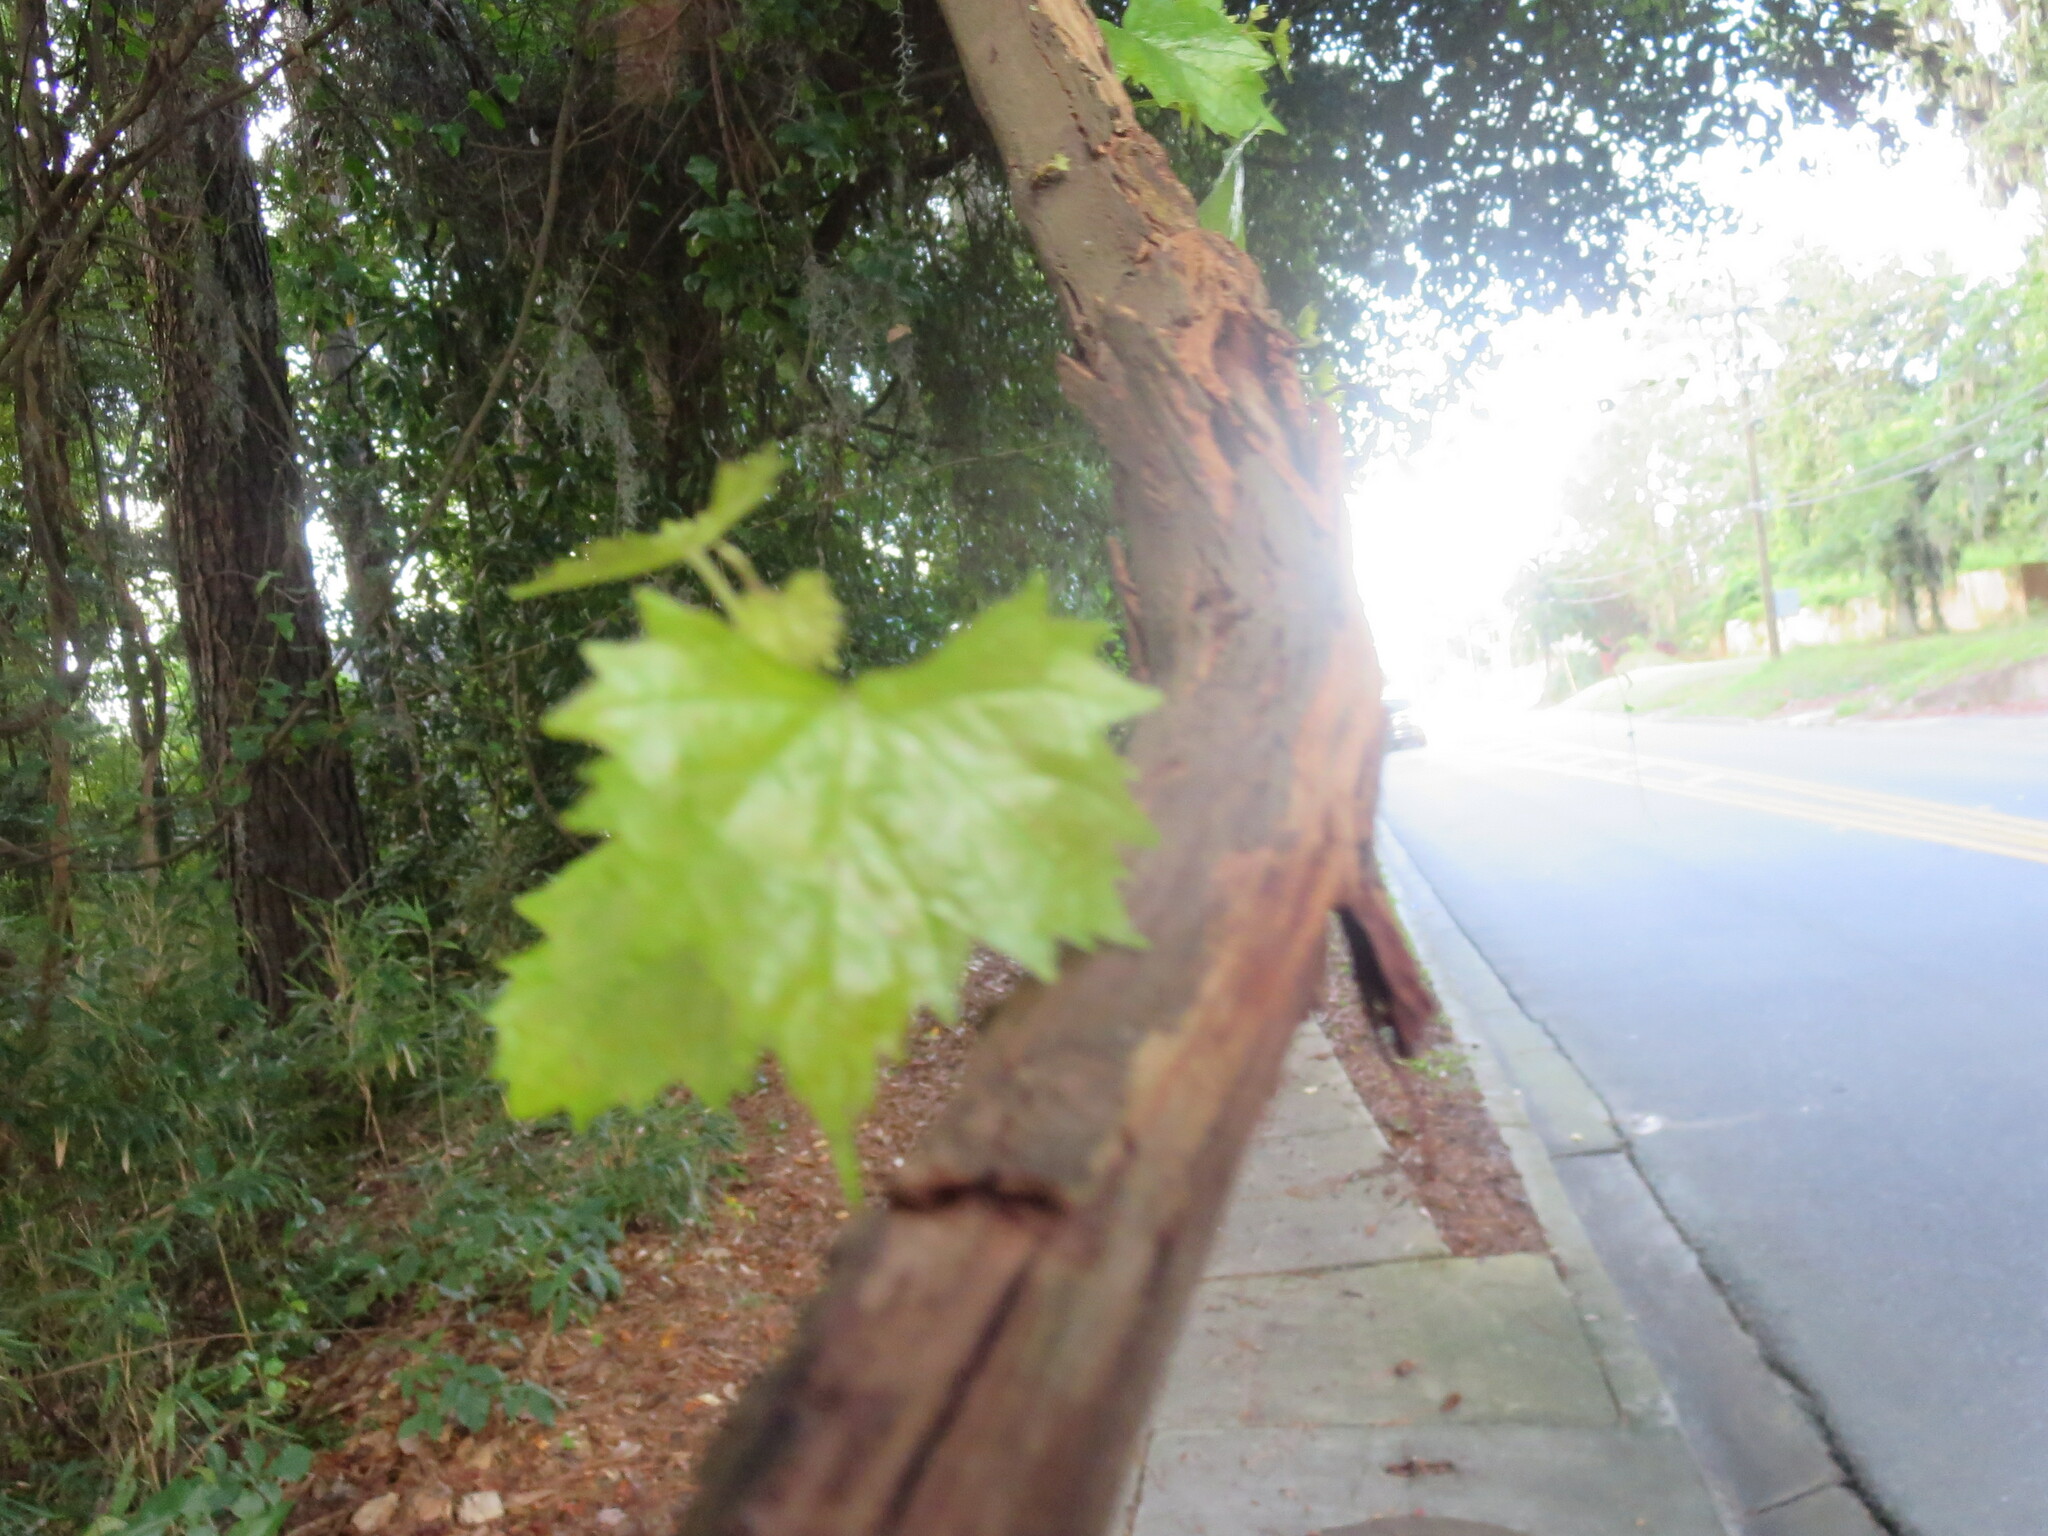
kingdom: Plantae
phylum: Tracheophyta
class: Magnoliopsida
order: Vitales
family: Vitaceae
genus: Vitis
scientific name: Vitis rotundifolia
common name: Muscadine grape
